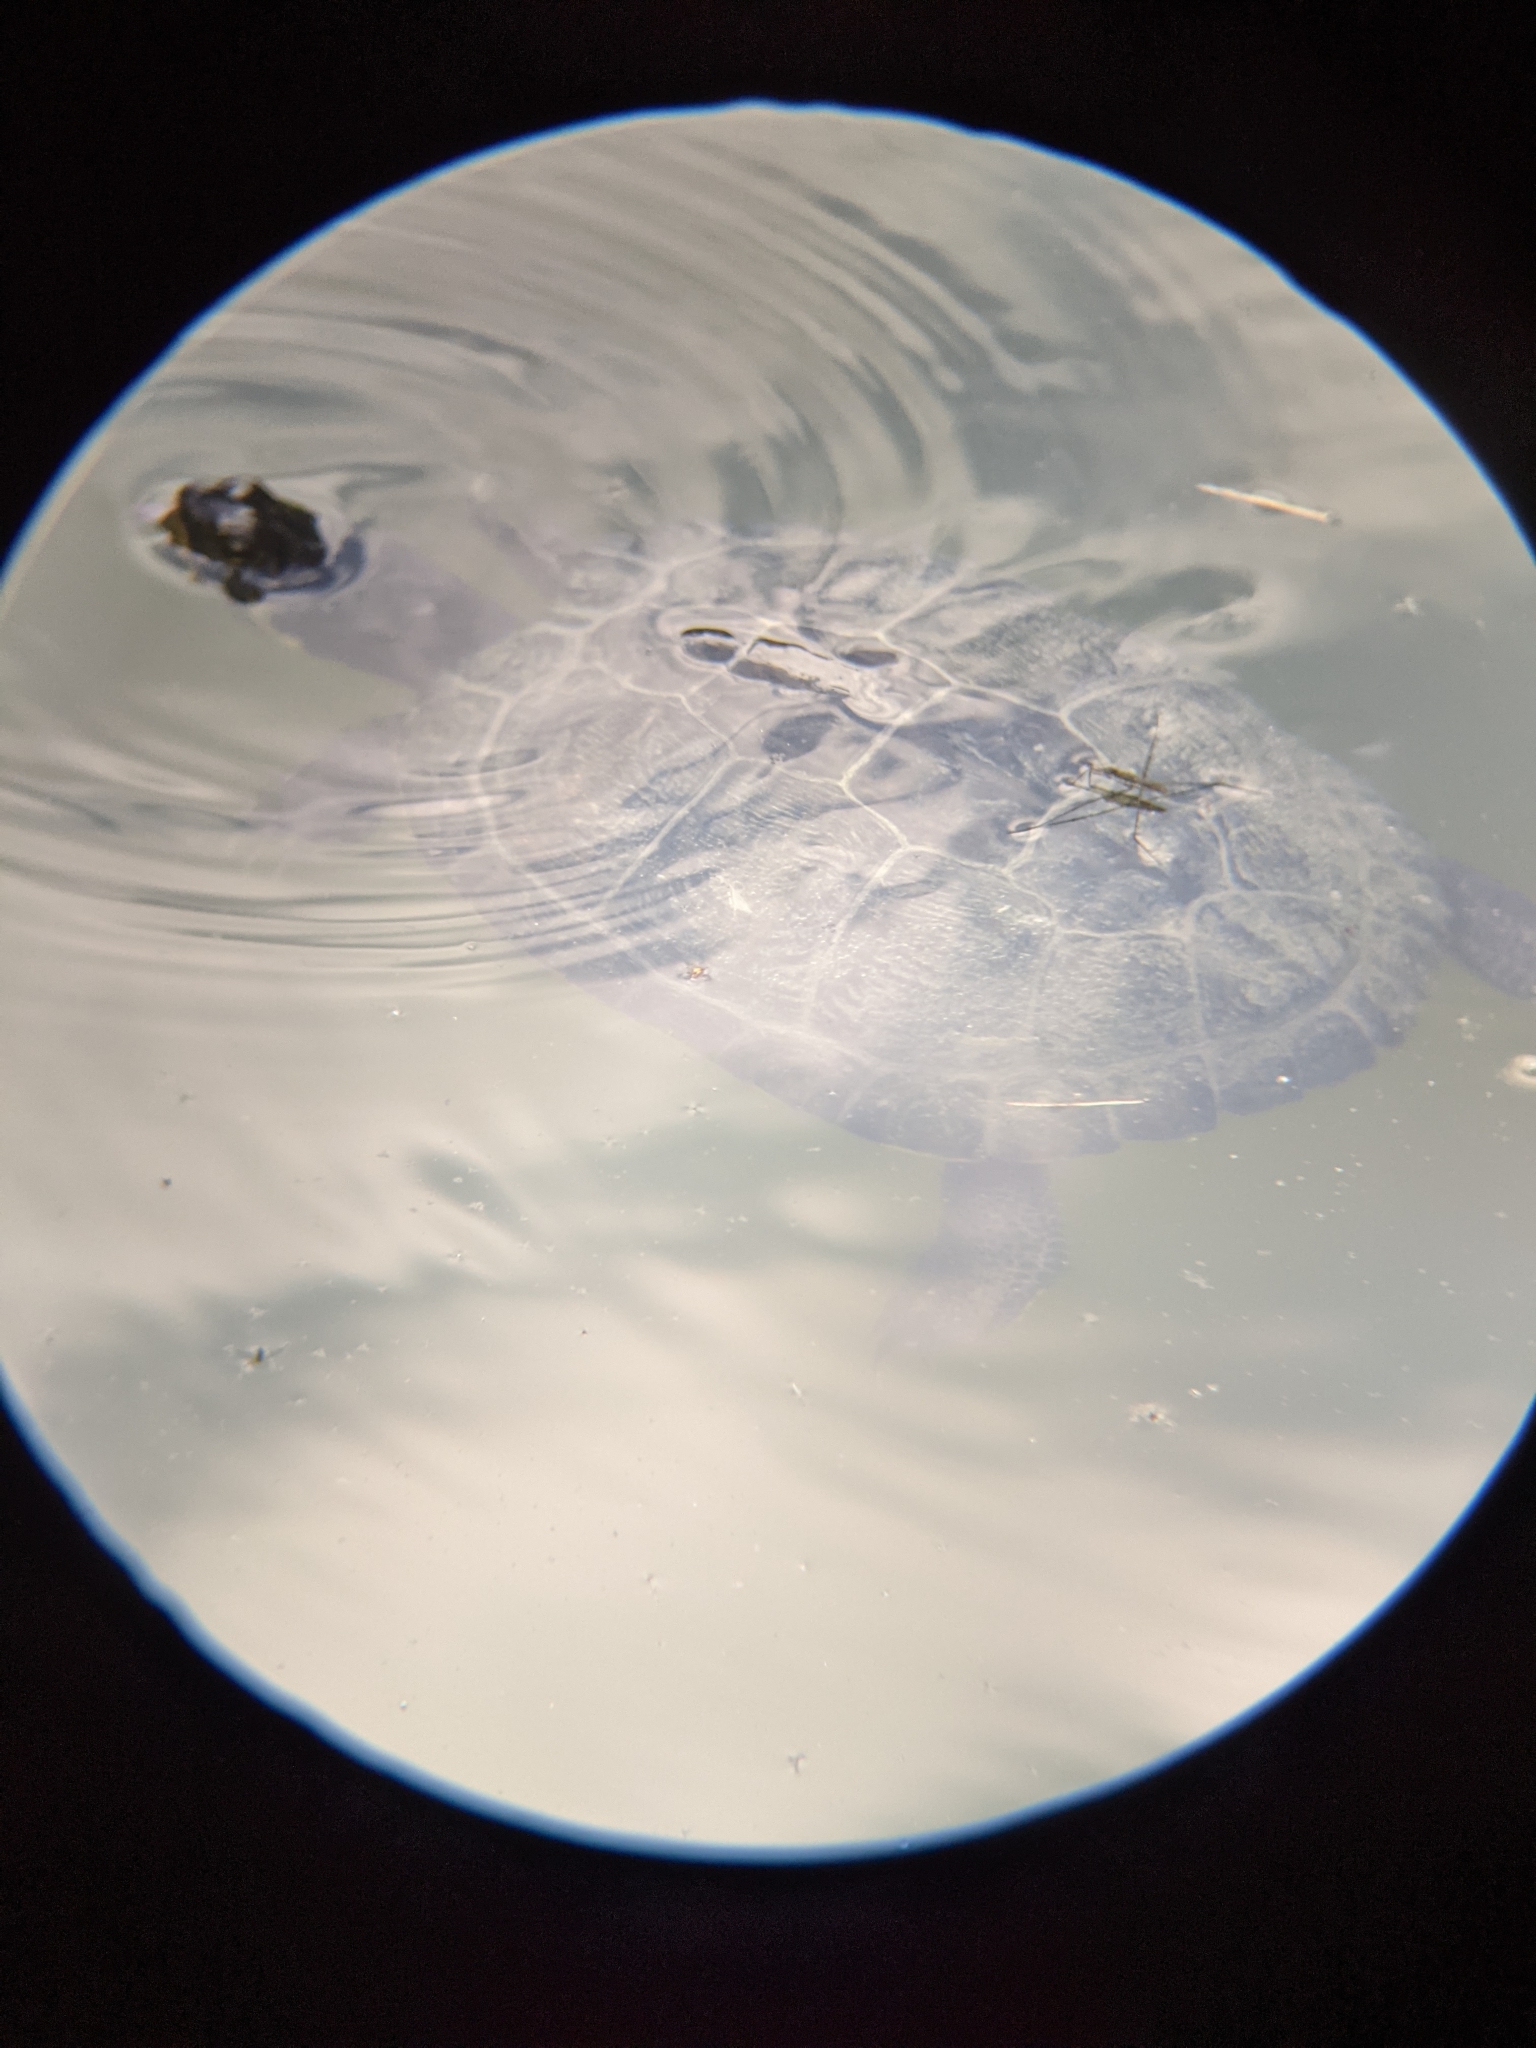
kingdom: Animalia
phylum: Chordata
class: Testudines
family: Emydidae
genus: Trachemys
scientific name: Trachemys scripta
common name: Slider
